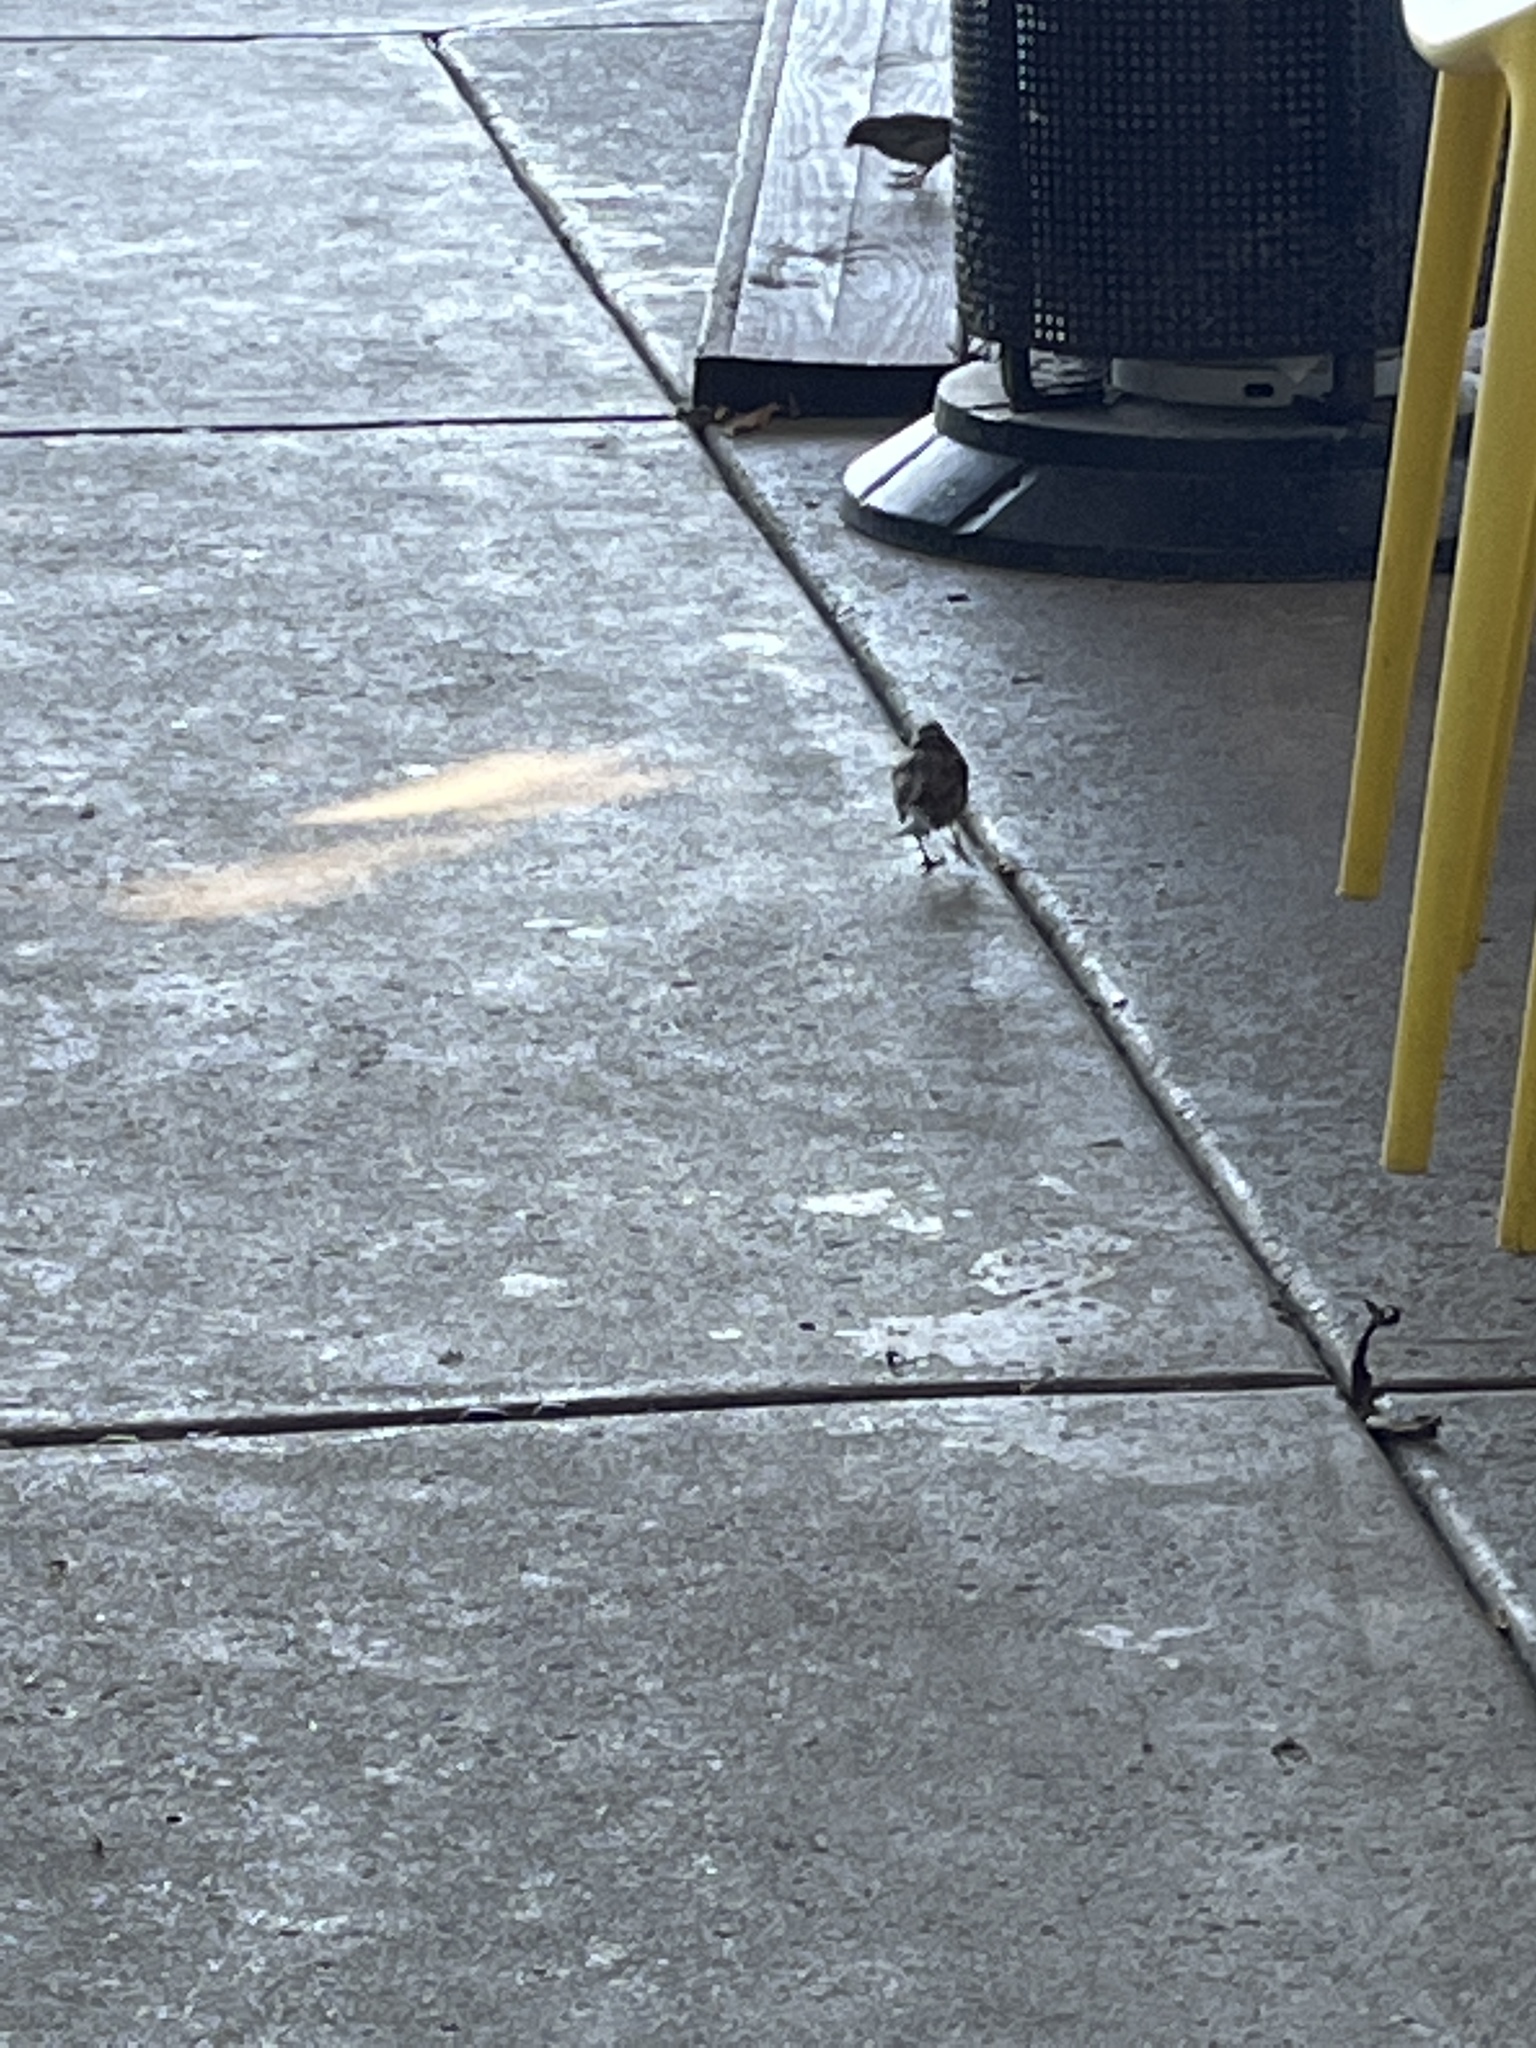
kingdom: Animalia
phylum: Chordata
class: Aves
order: Passeriformes
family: Passeridae
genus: Passer
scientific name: Passer domesticus
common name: House sparrow
